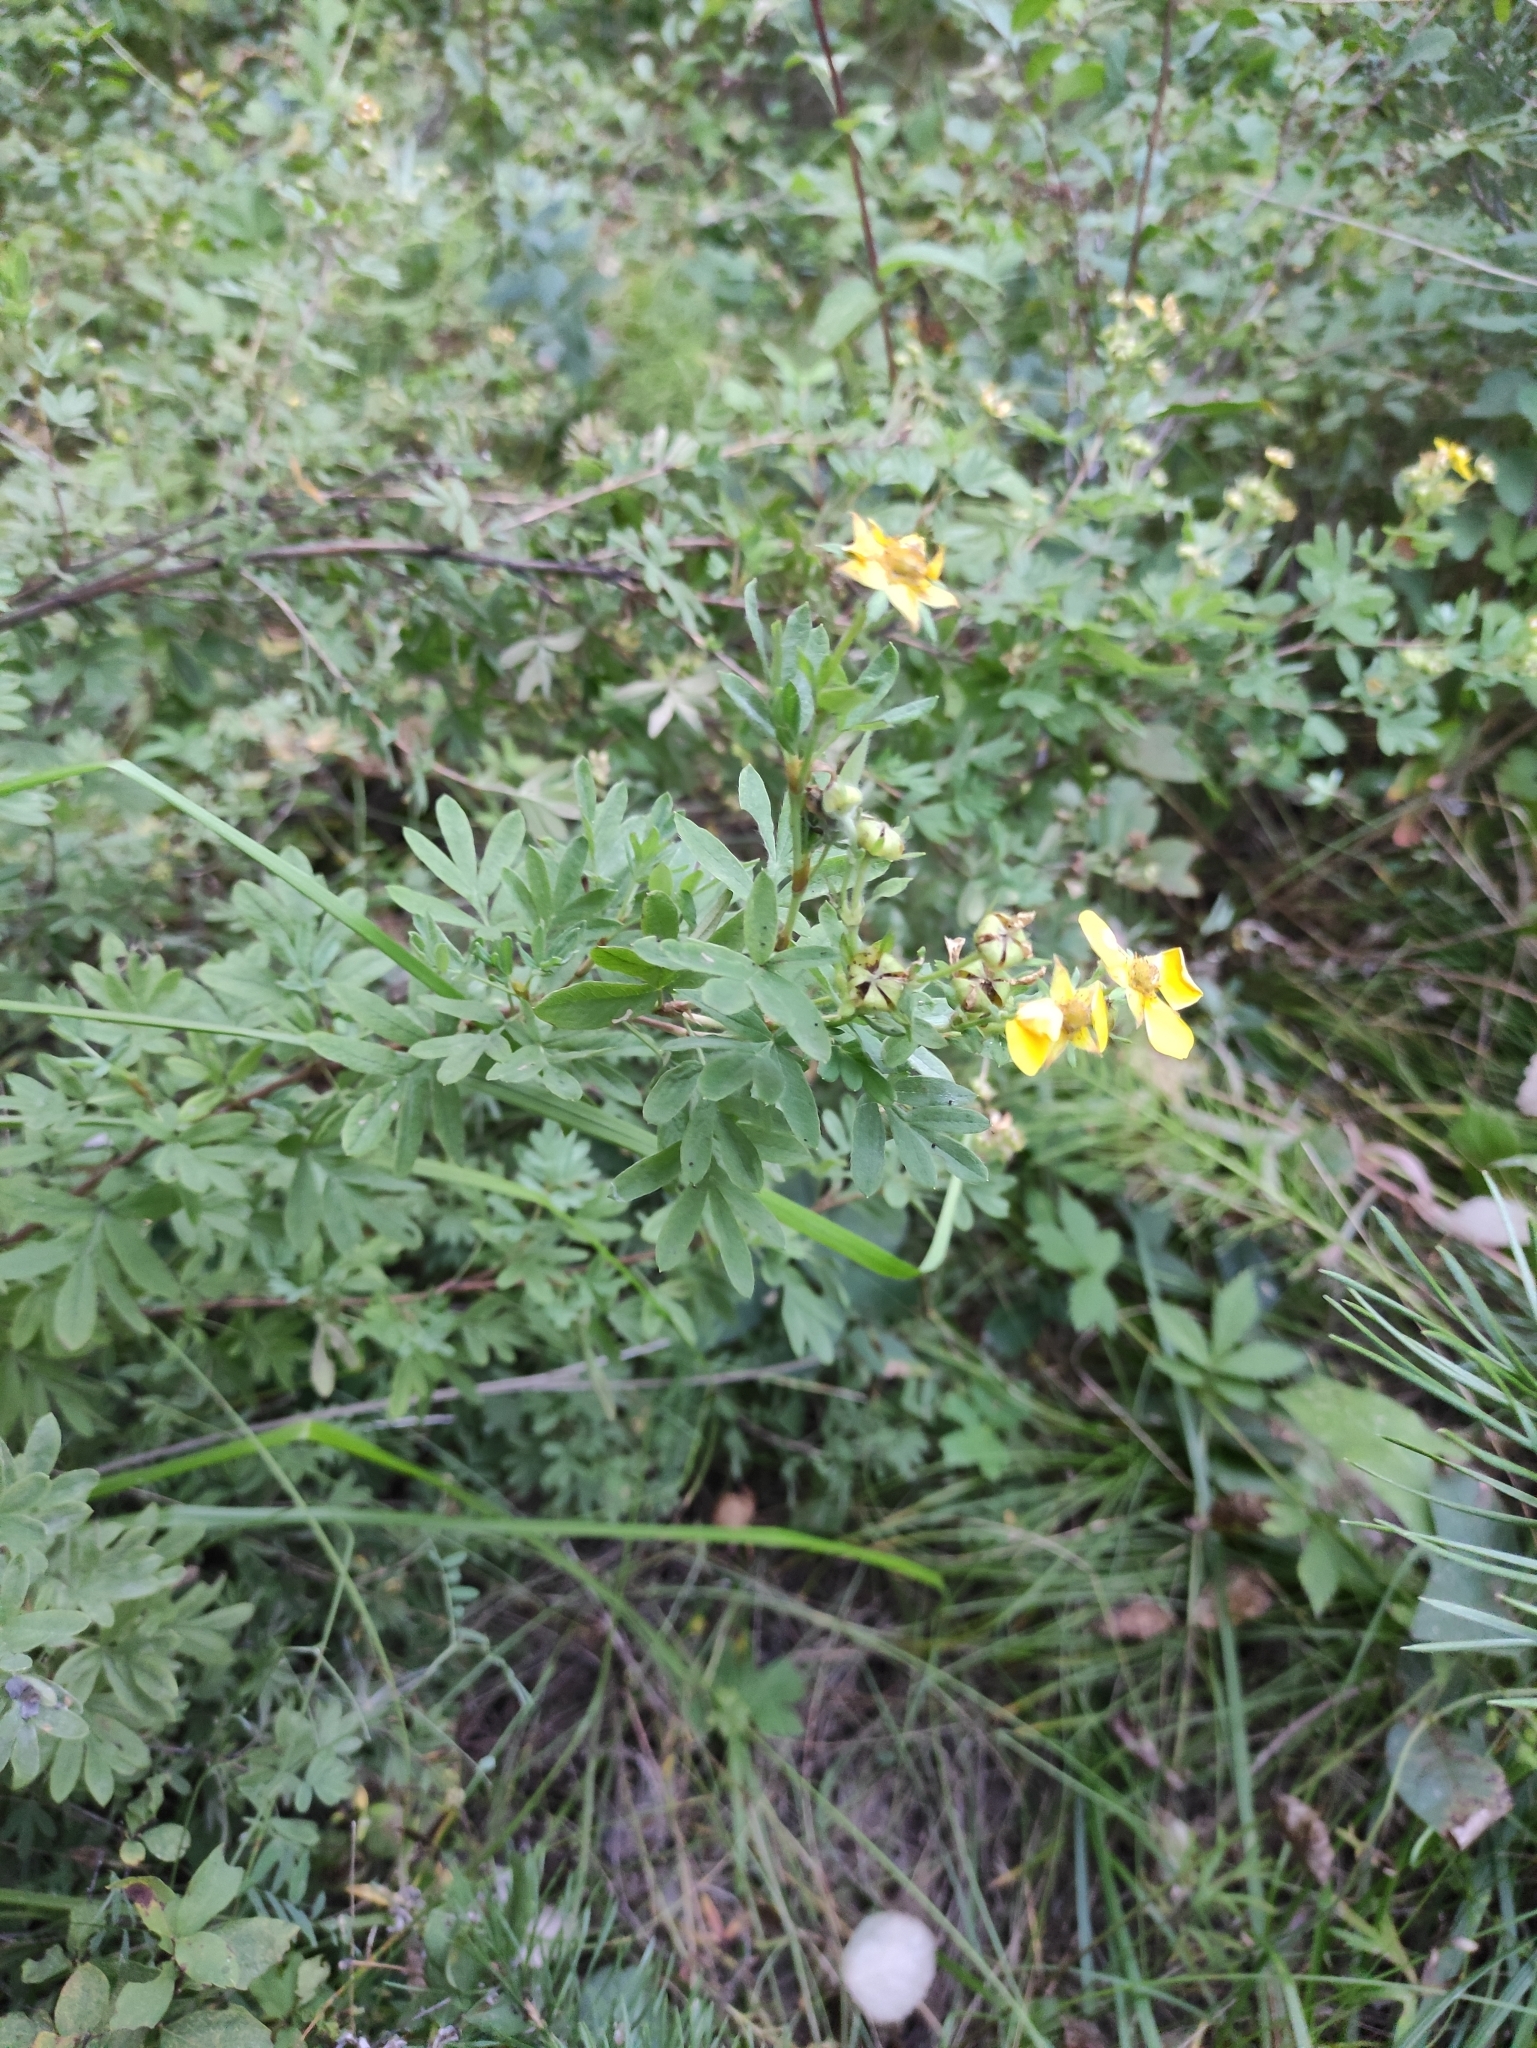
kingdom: Plantae
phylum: Tracheophyta
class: Magnoliopsida
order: Rosales
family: Rosaceae
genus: Dasiphora
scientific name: Dasiphora fruticosa
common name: Shrubby cinquefoil
